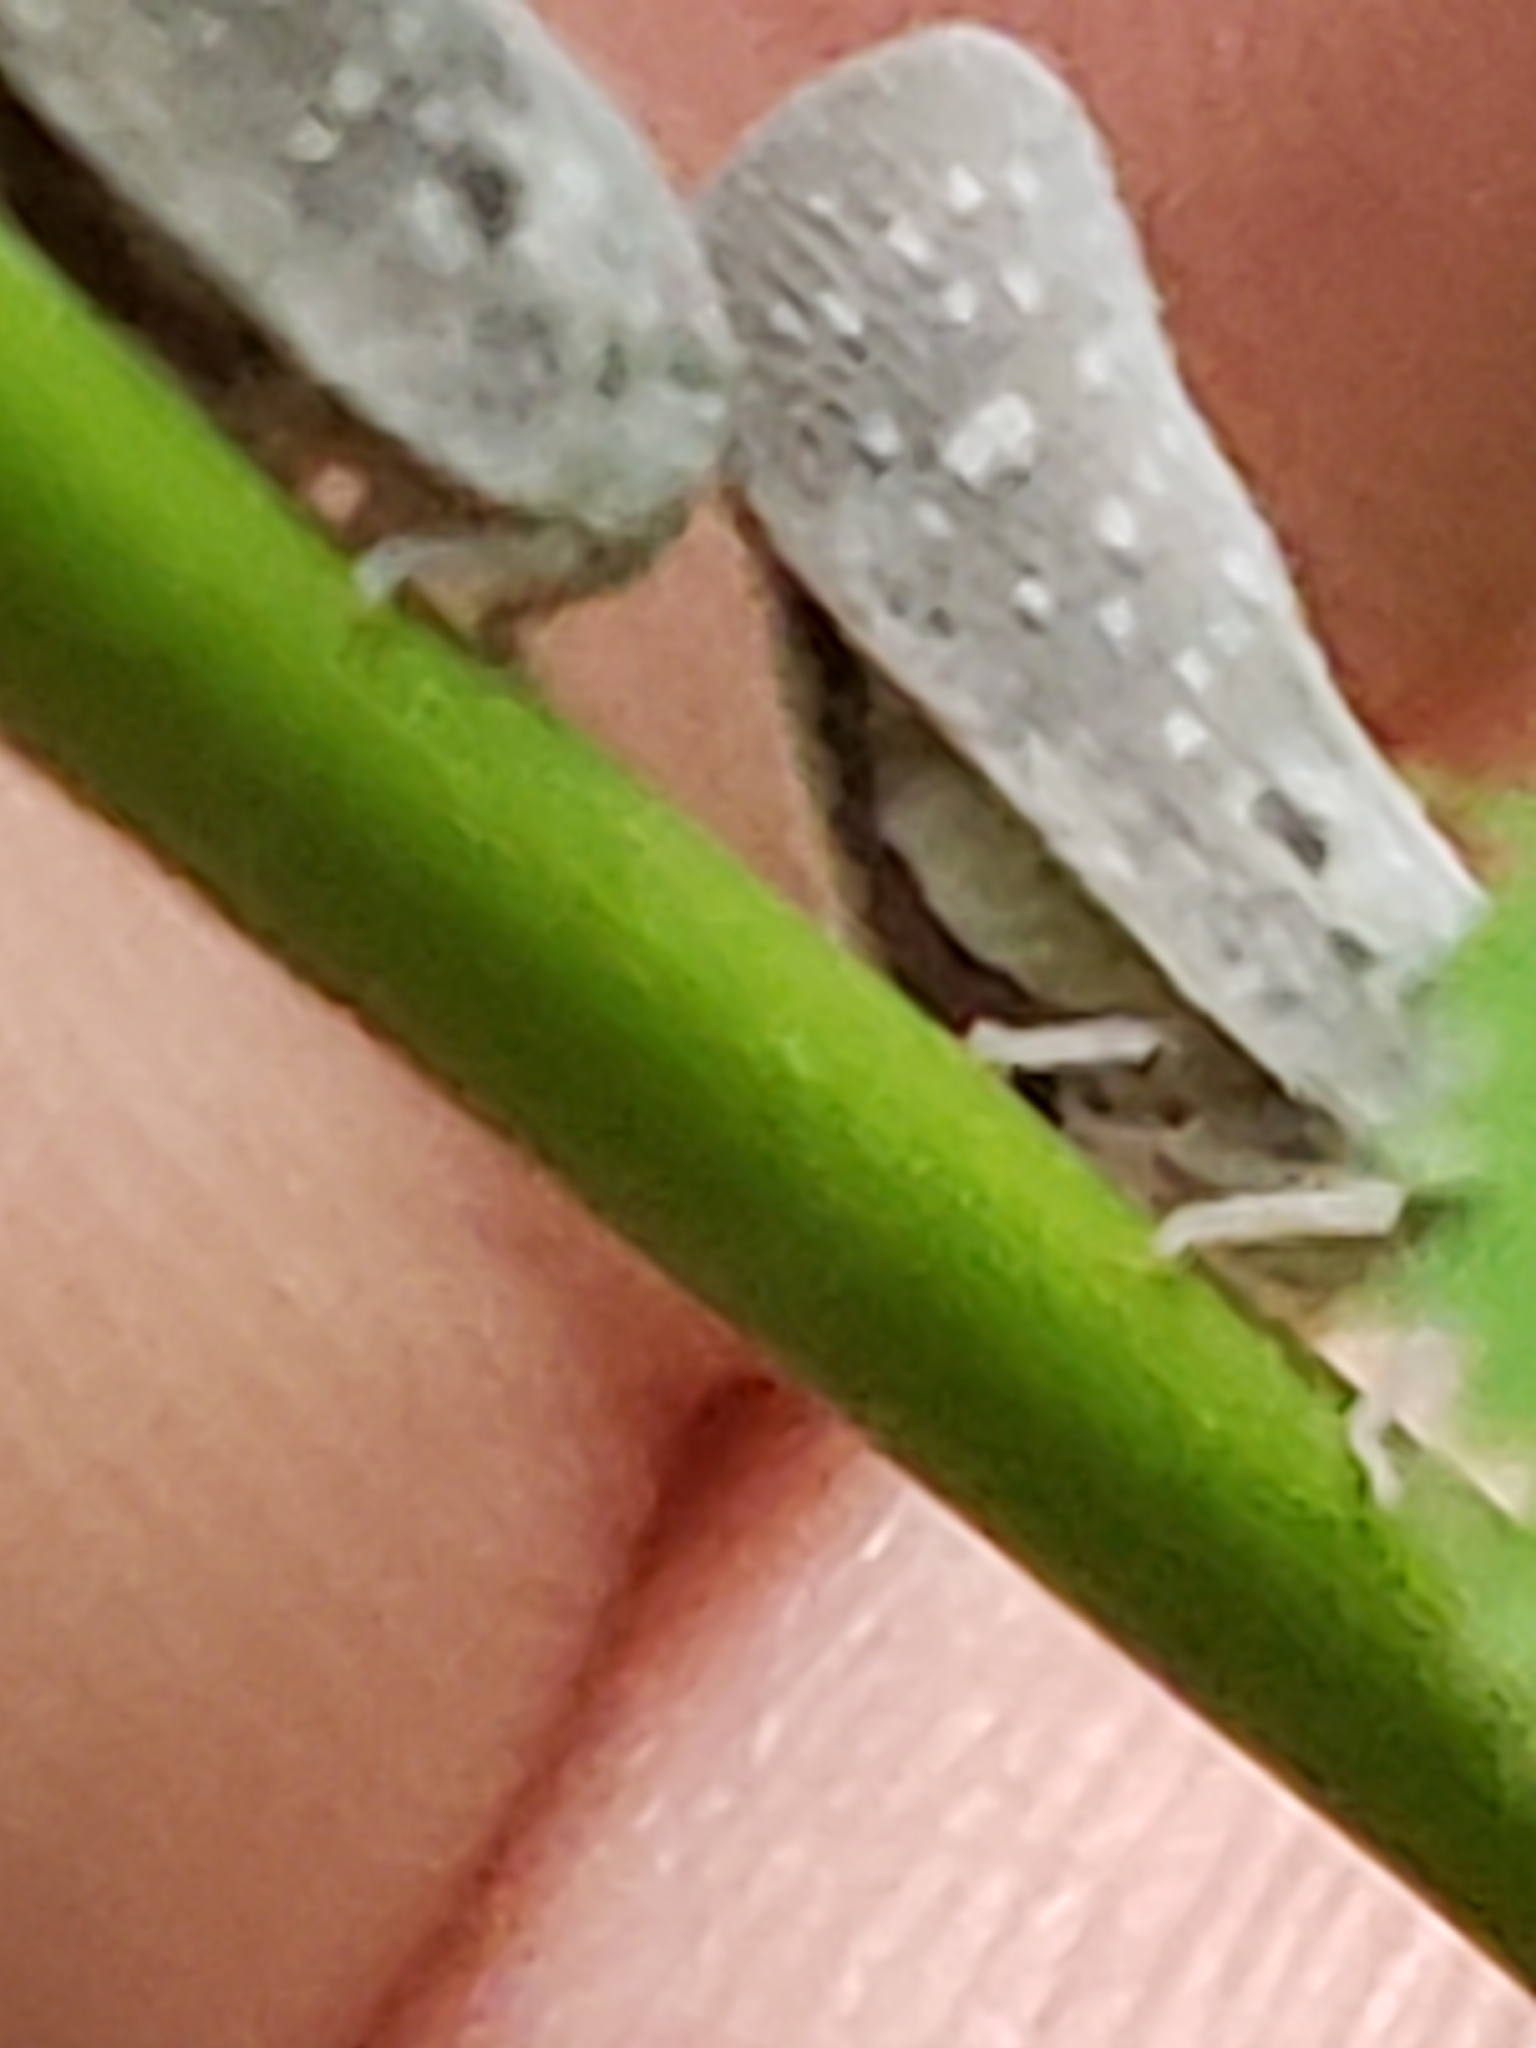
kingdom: Animalia
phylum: Arthropoda
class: Insecta
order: Hemiptera
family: Flatidae
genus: Metcalfa
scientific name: Metcalfa pruinosa
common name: Citrus flatid planthopper
